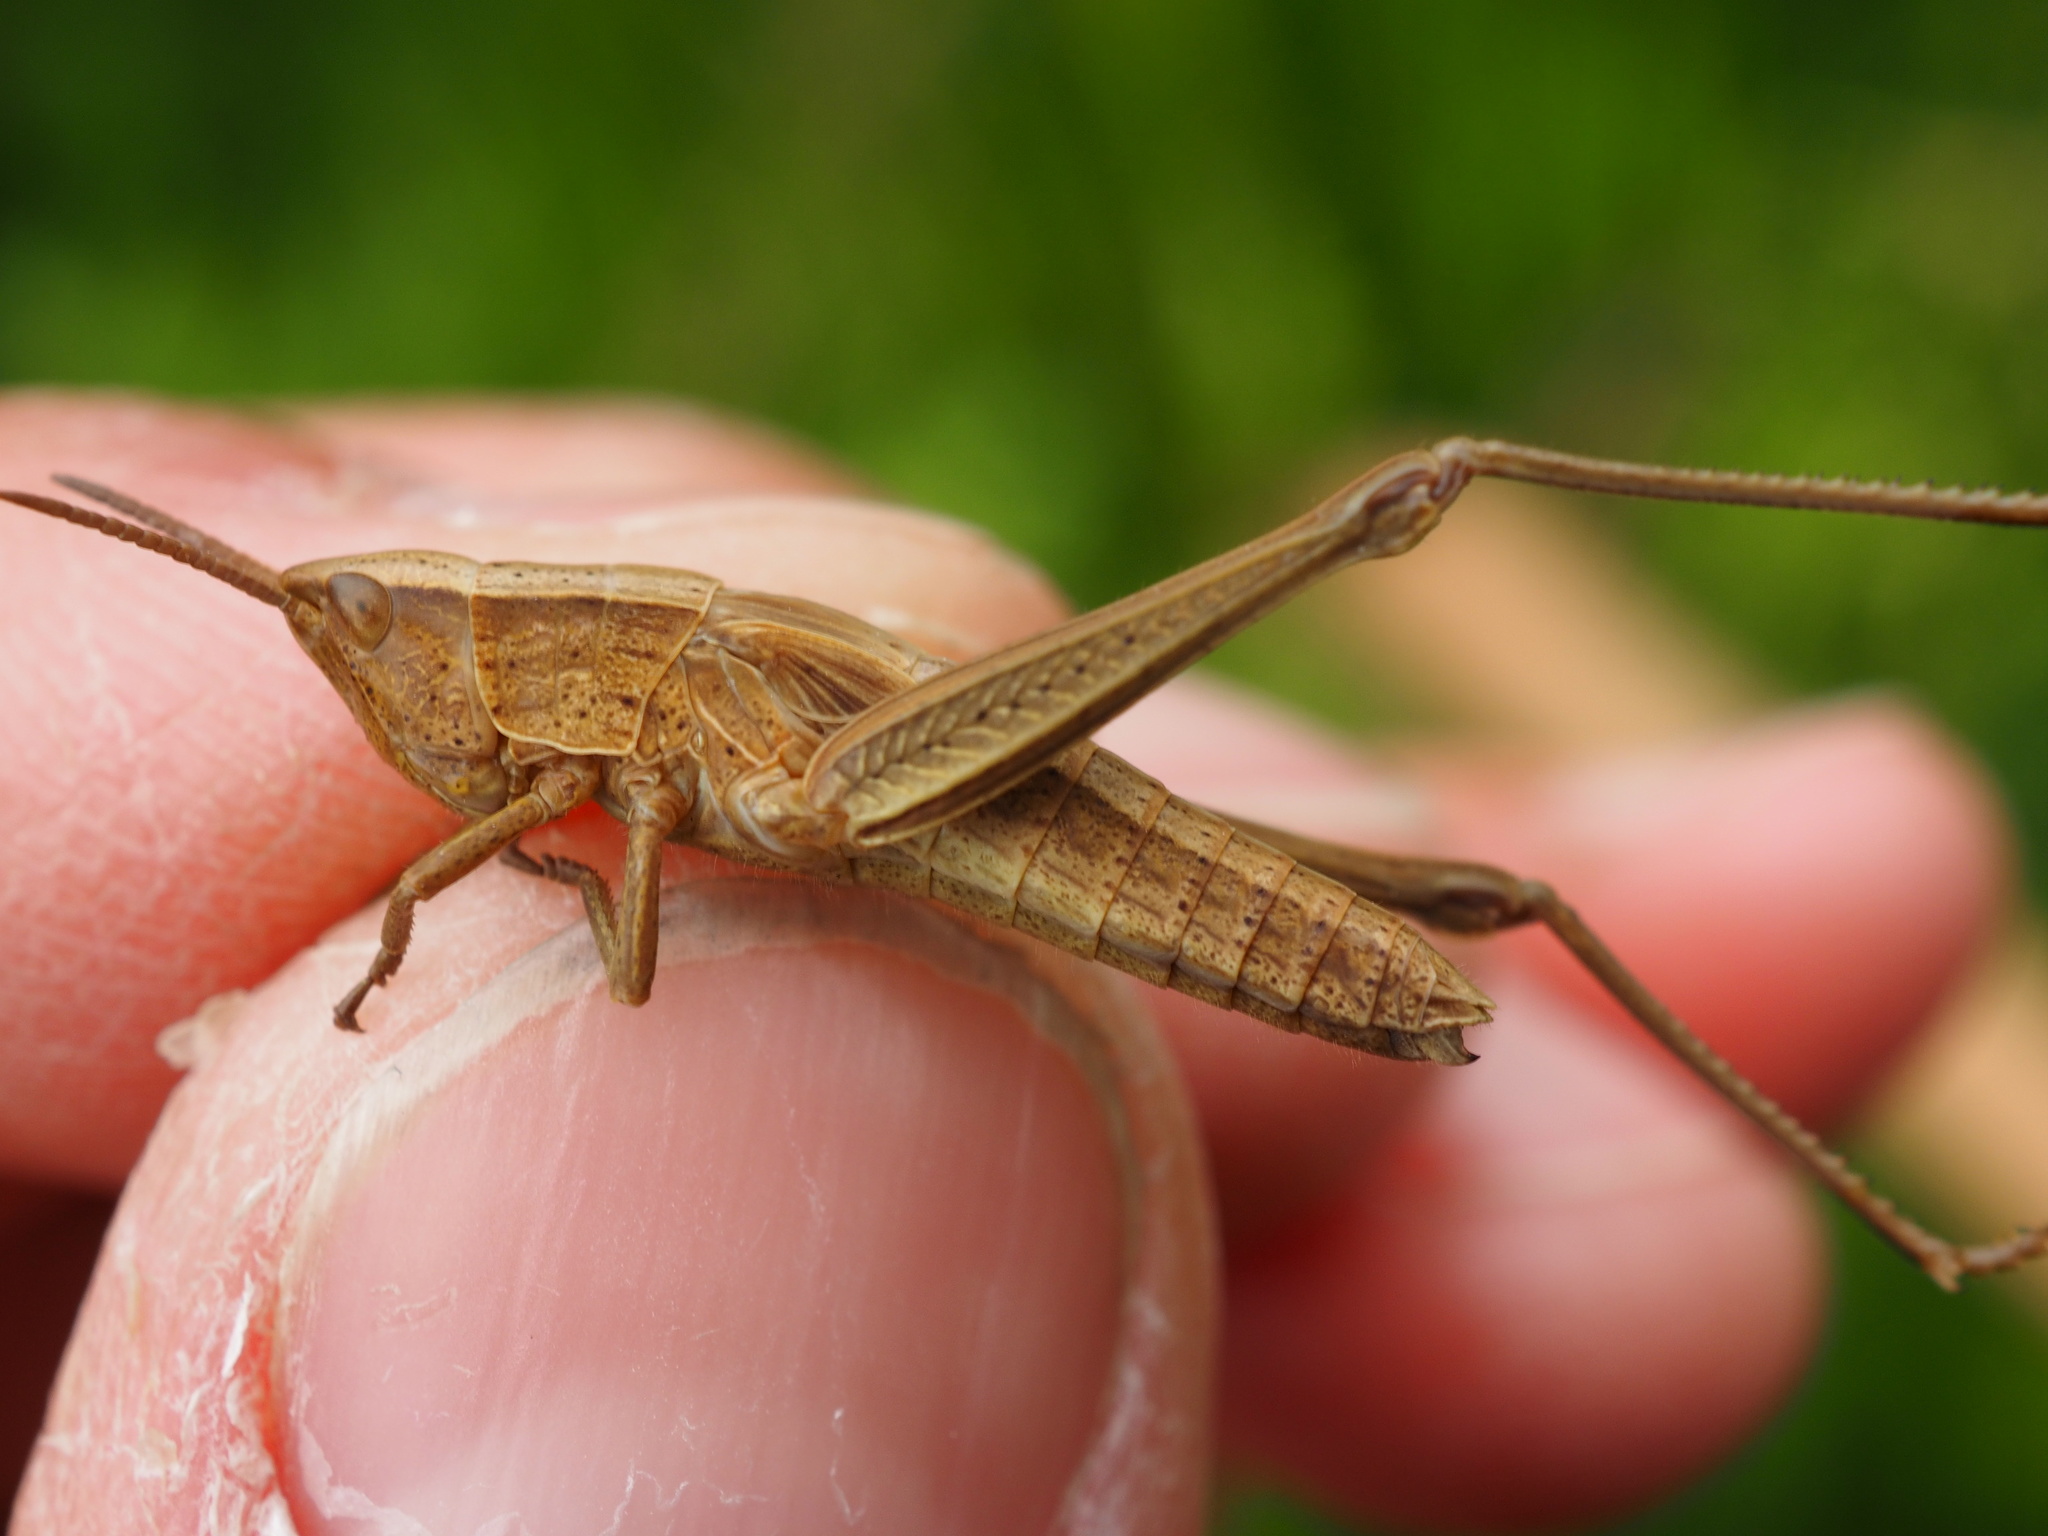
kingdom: Animalia
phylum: Arthropoda
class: Insecta
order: Orthoptera
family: Acrididae
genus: Chrysochraon
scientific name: Chrysochraon dispar
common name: Large gold grasshopper
